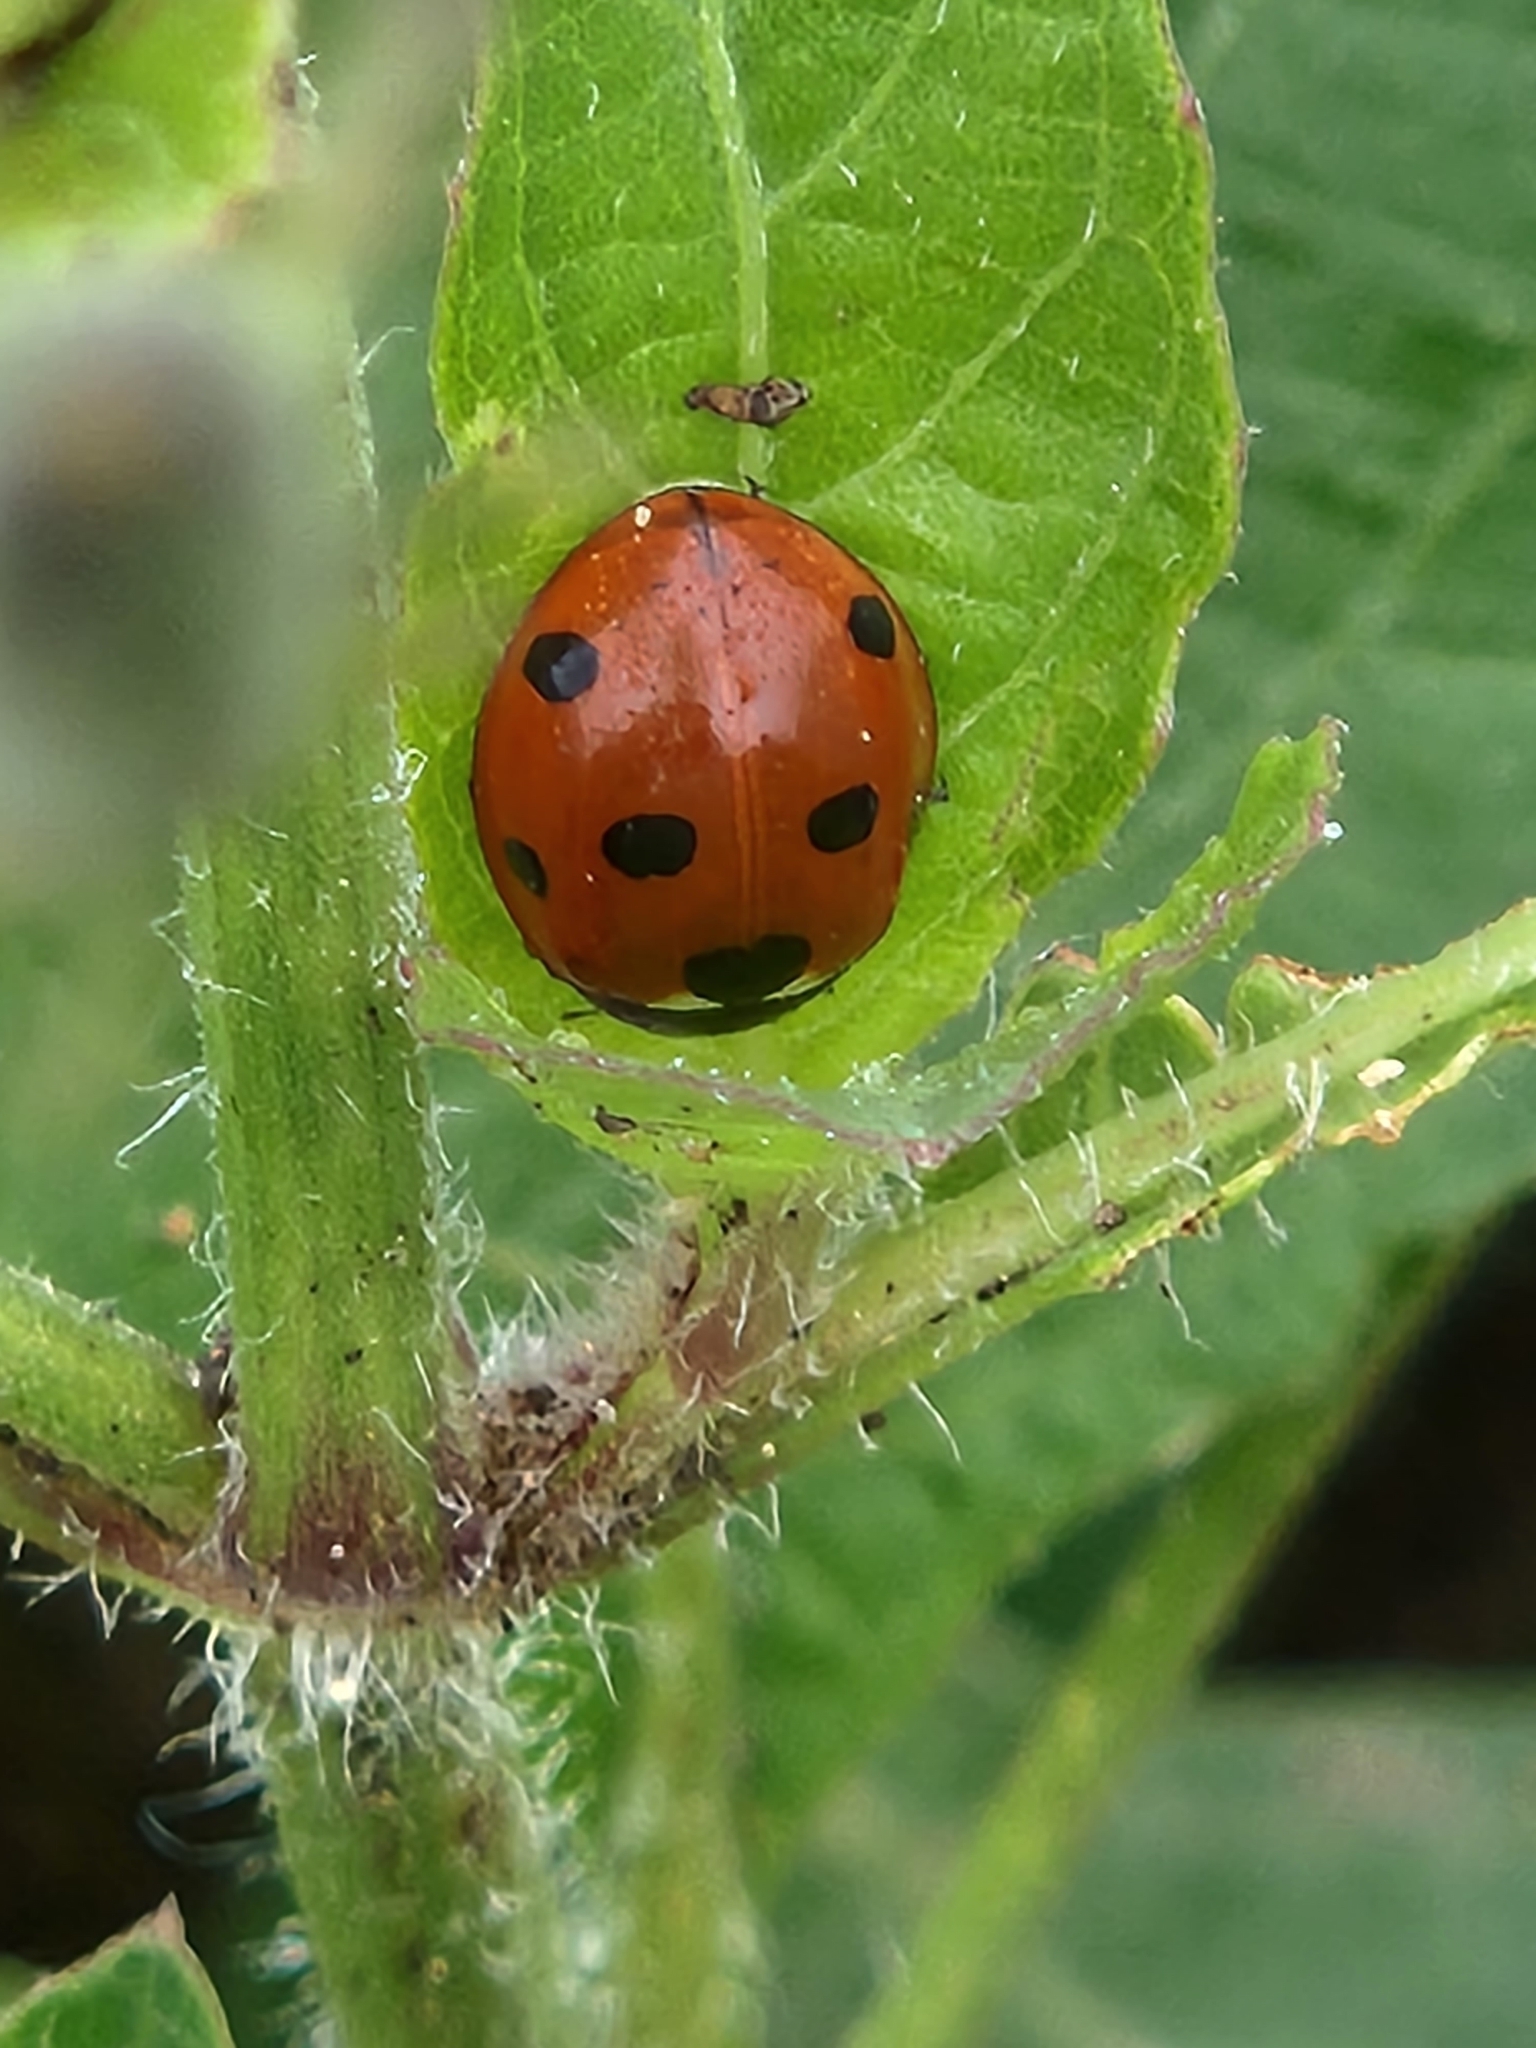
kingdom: Animalia
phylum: Arthropoda
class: Insecta
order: Coleoptera
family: Coccinellidae
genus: Coccinella
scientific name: Coccinella septempunctata
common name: Sevenspotted lady beetle
